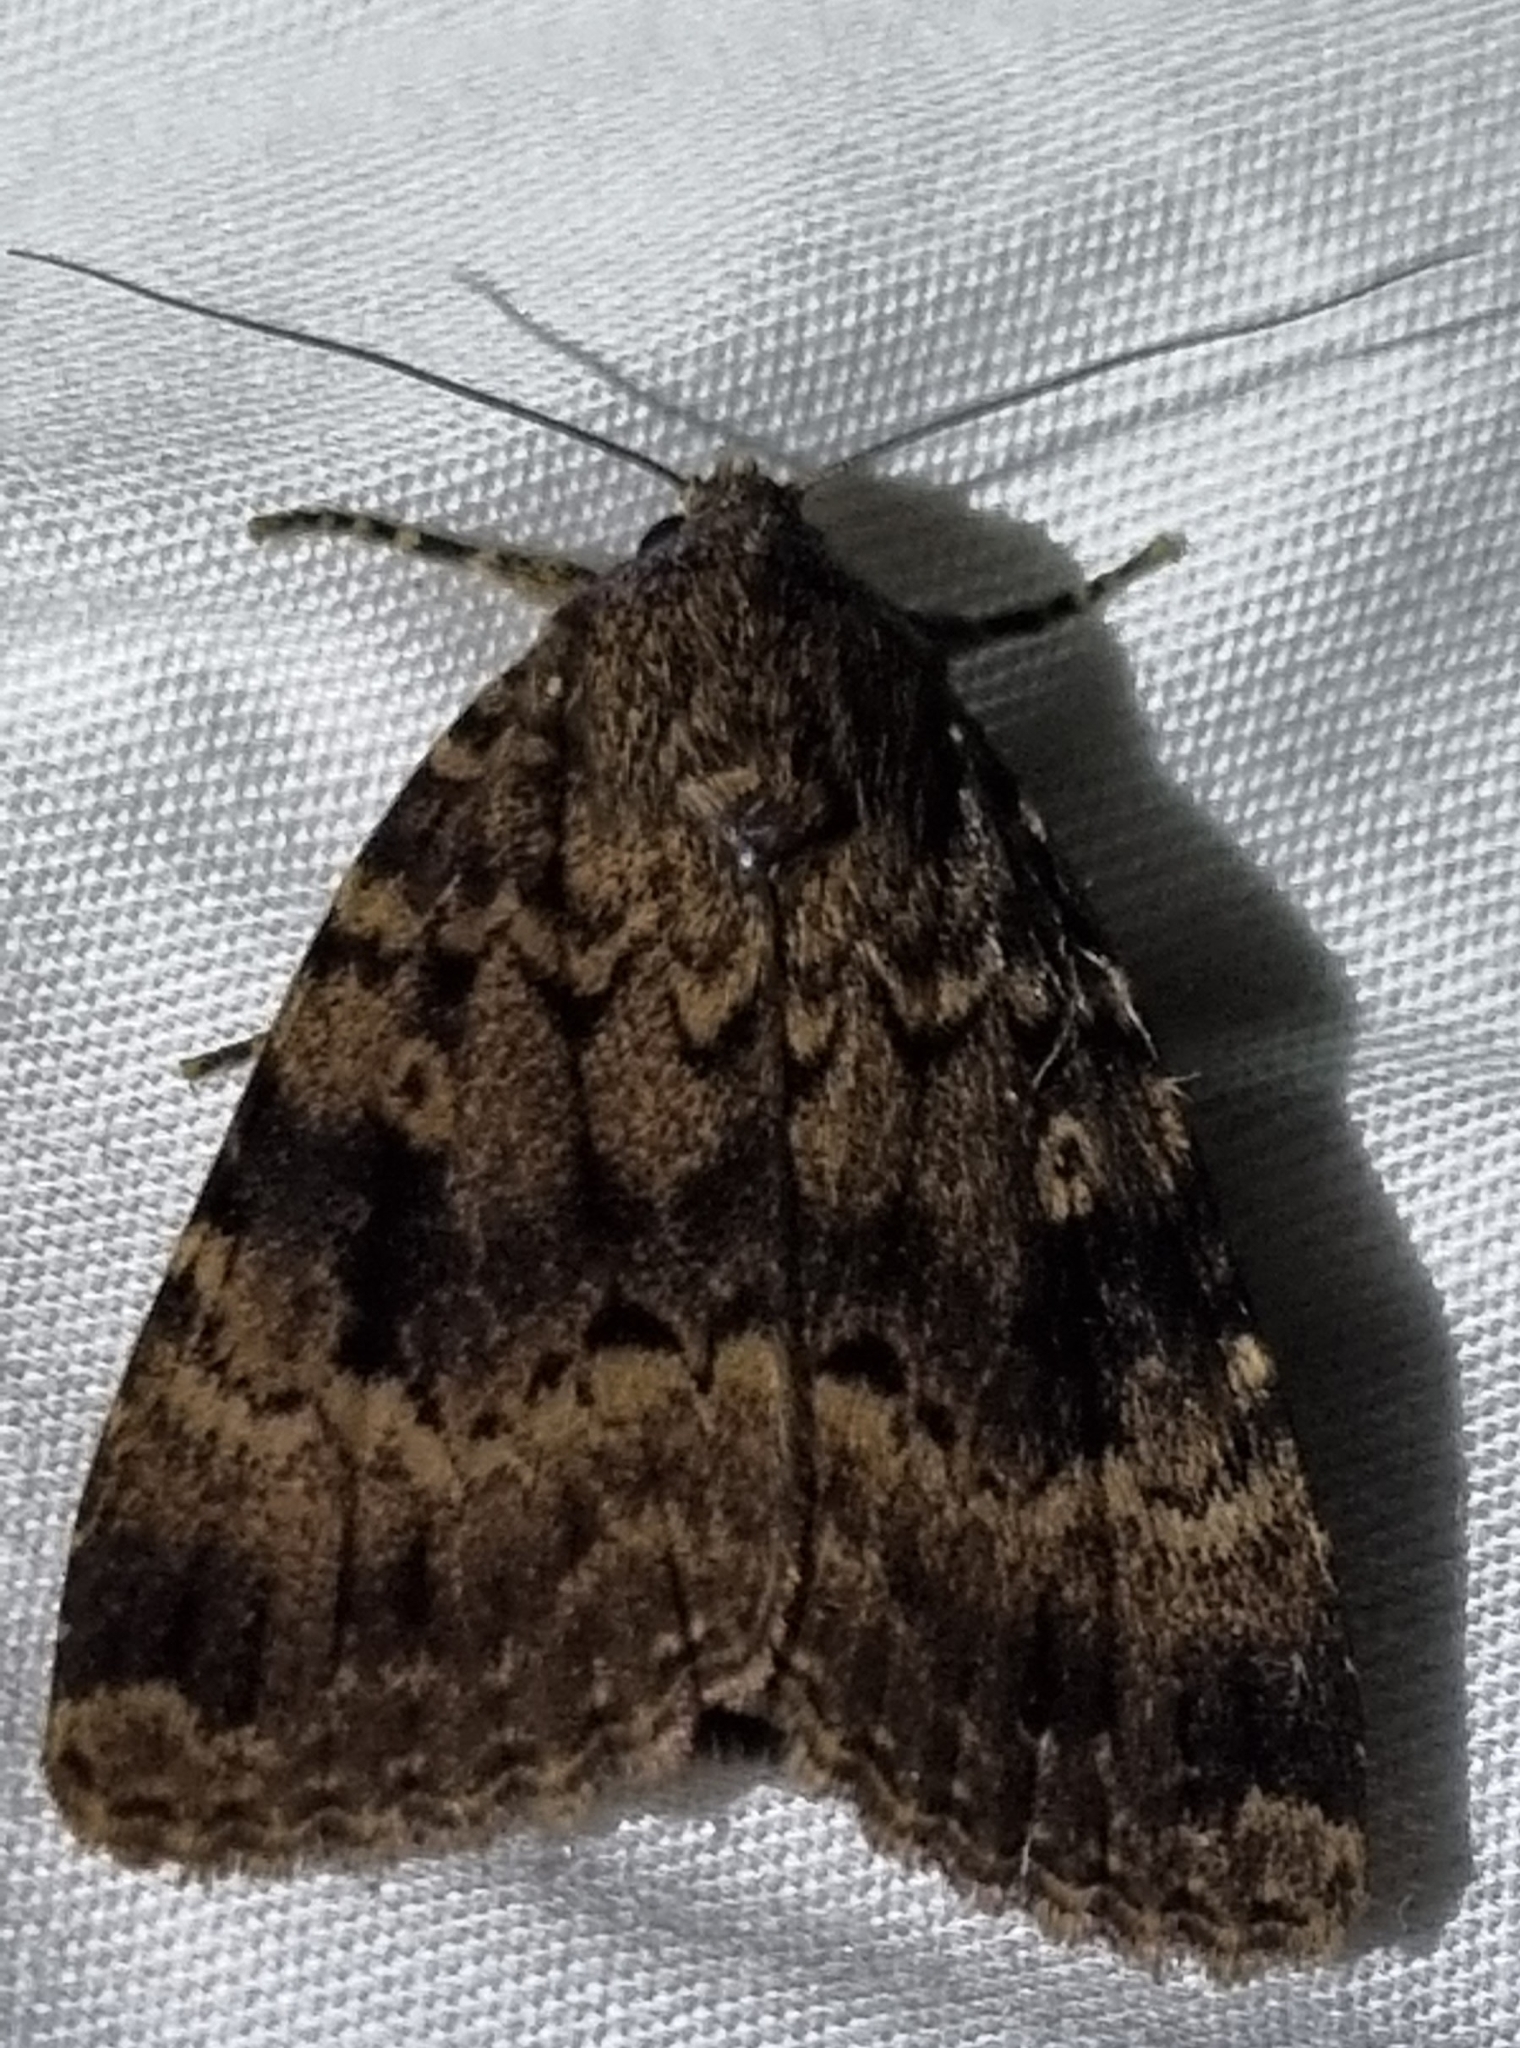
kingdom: Animalia
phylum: Arthropoda
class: Insecta
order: Lepidoptera
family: Noctuidae
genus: Amphipyra
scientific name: Amphipyra berbera
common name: Svensson's copper underwing
